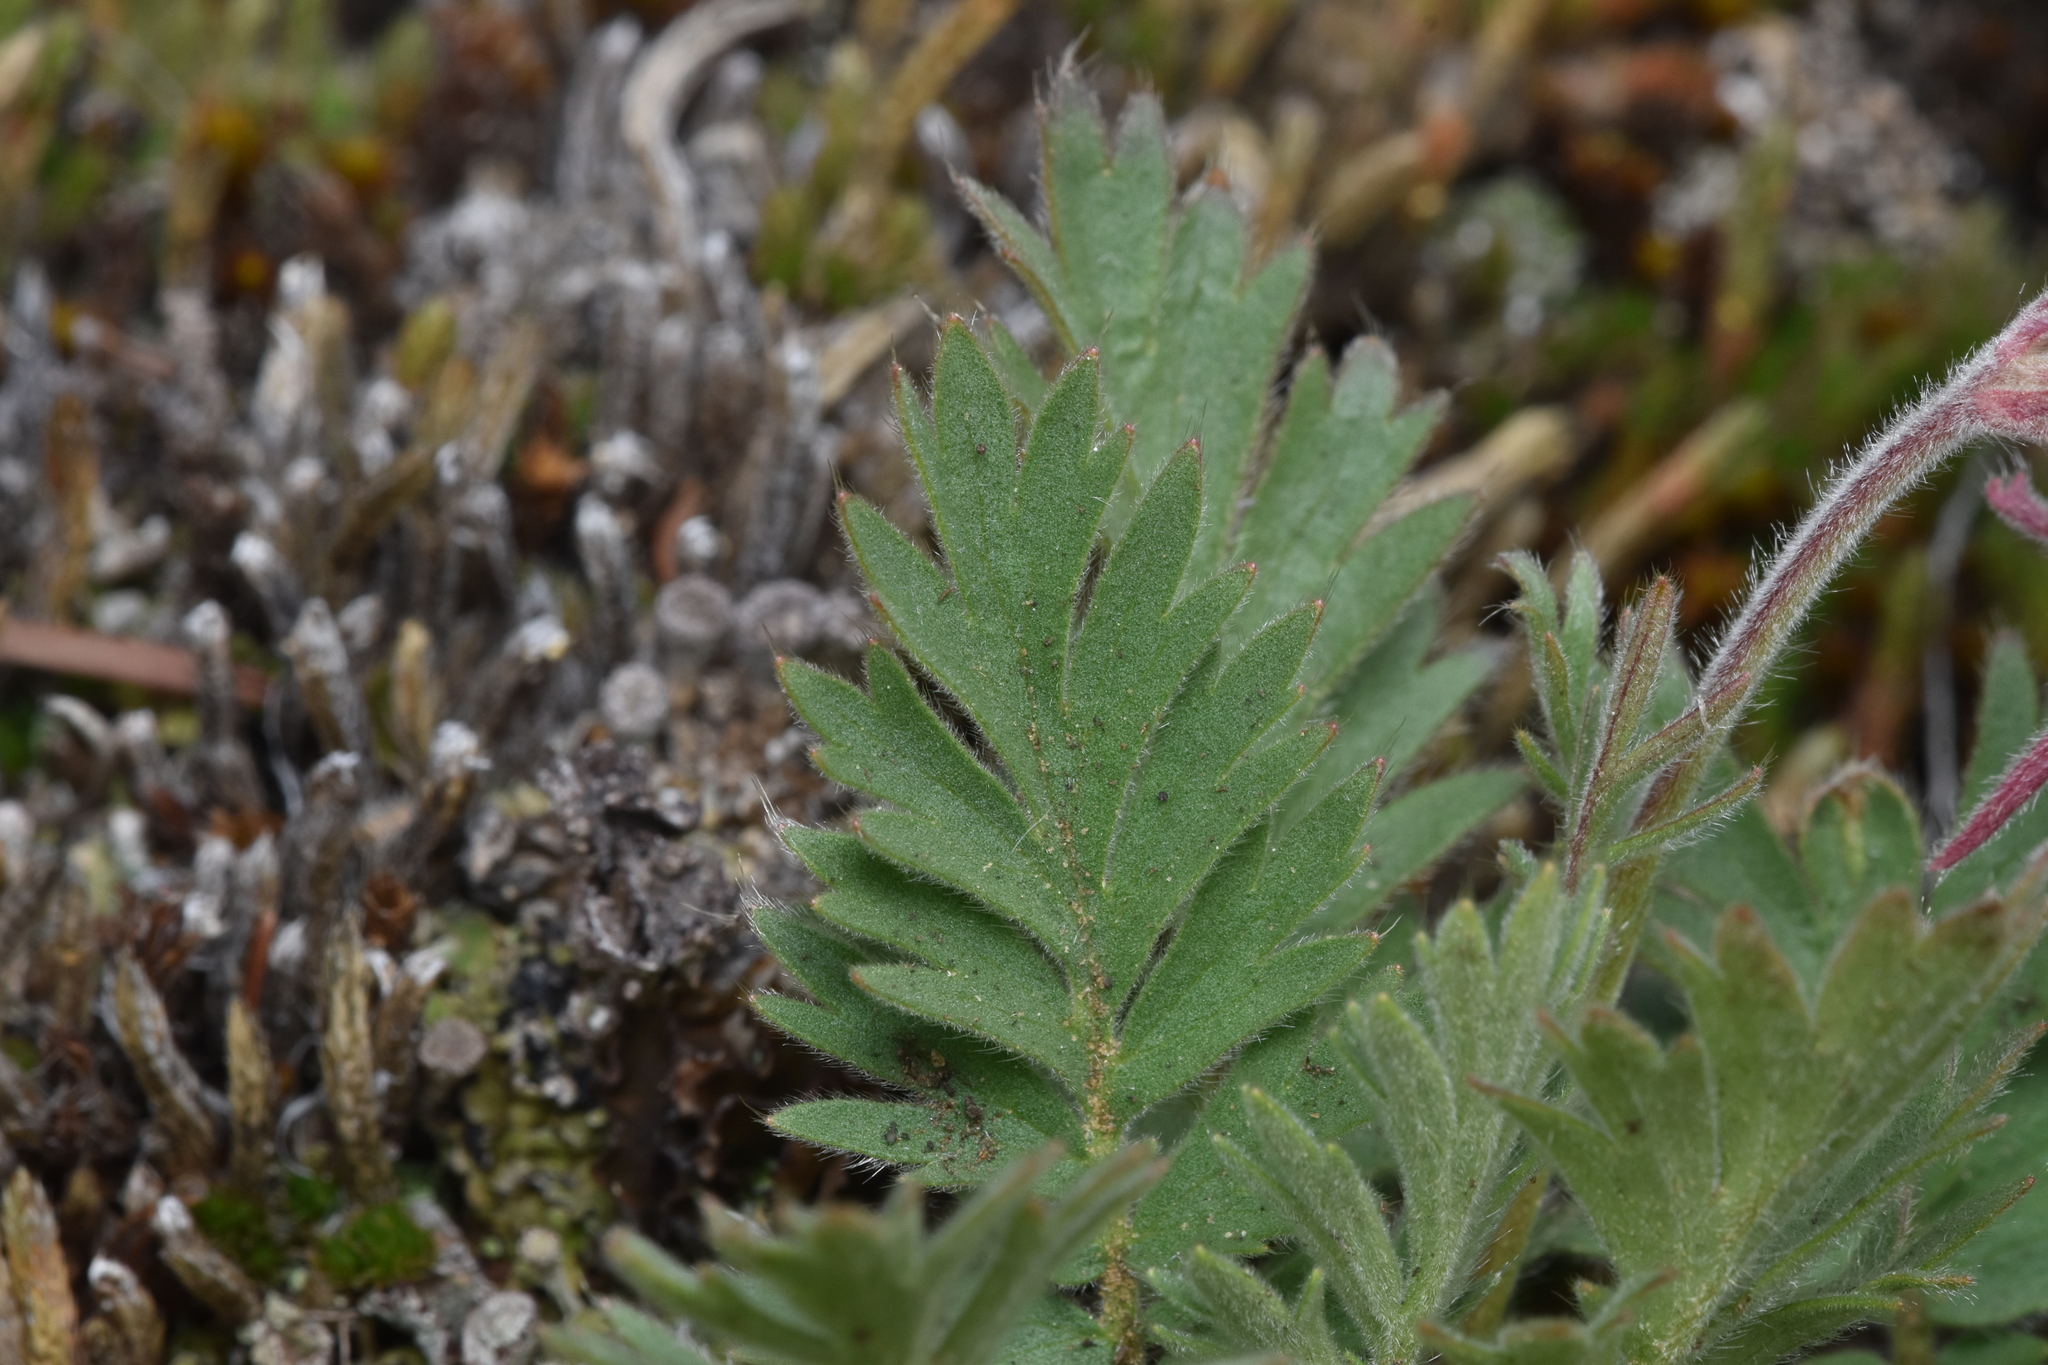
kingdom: Plantae
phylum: Tracheophyta
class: Magnoliopsida
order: Rosales
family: Rosaceae
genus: Geum
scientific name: Geum triflorum
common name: Old man's whiskers
